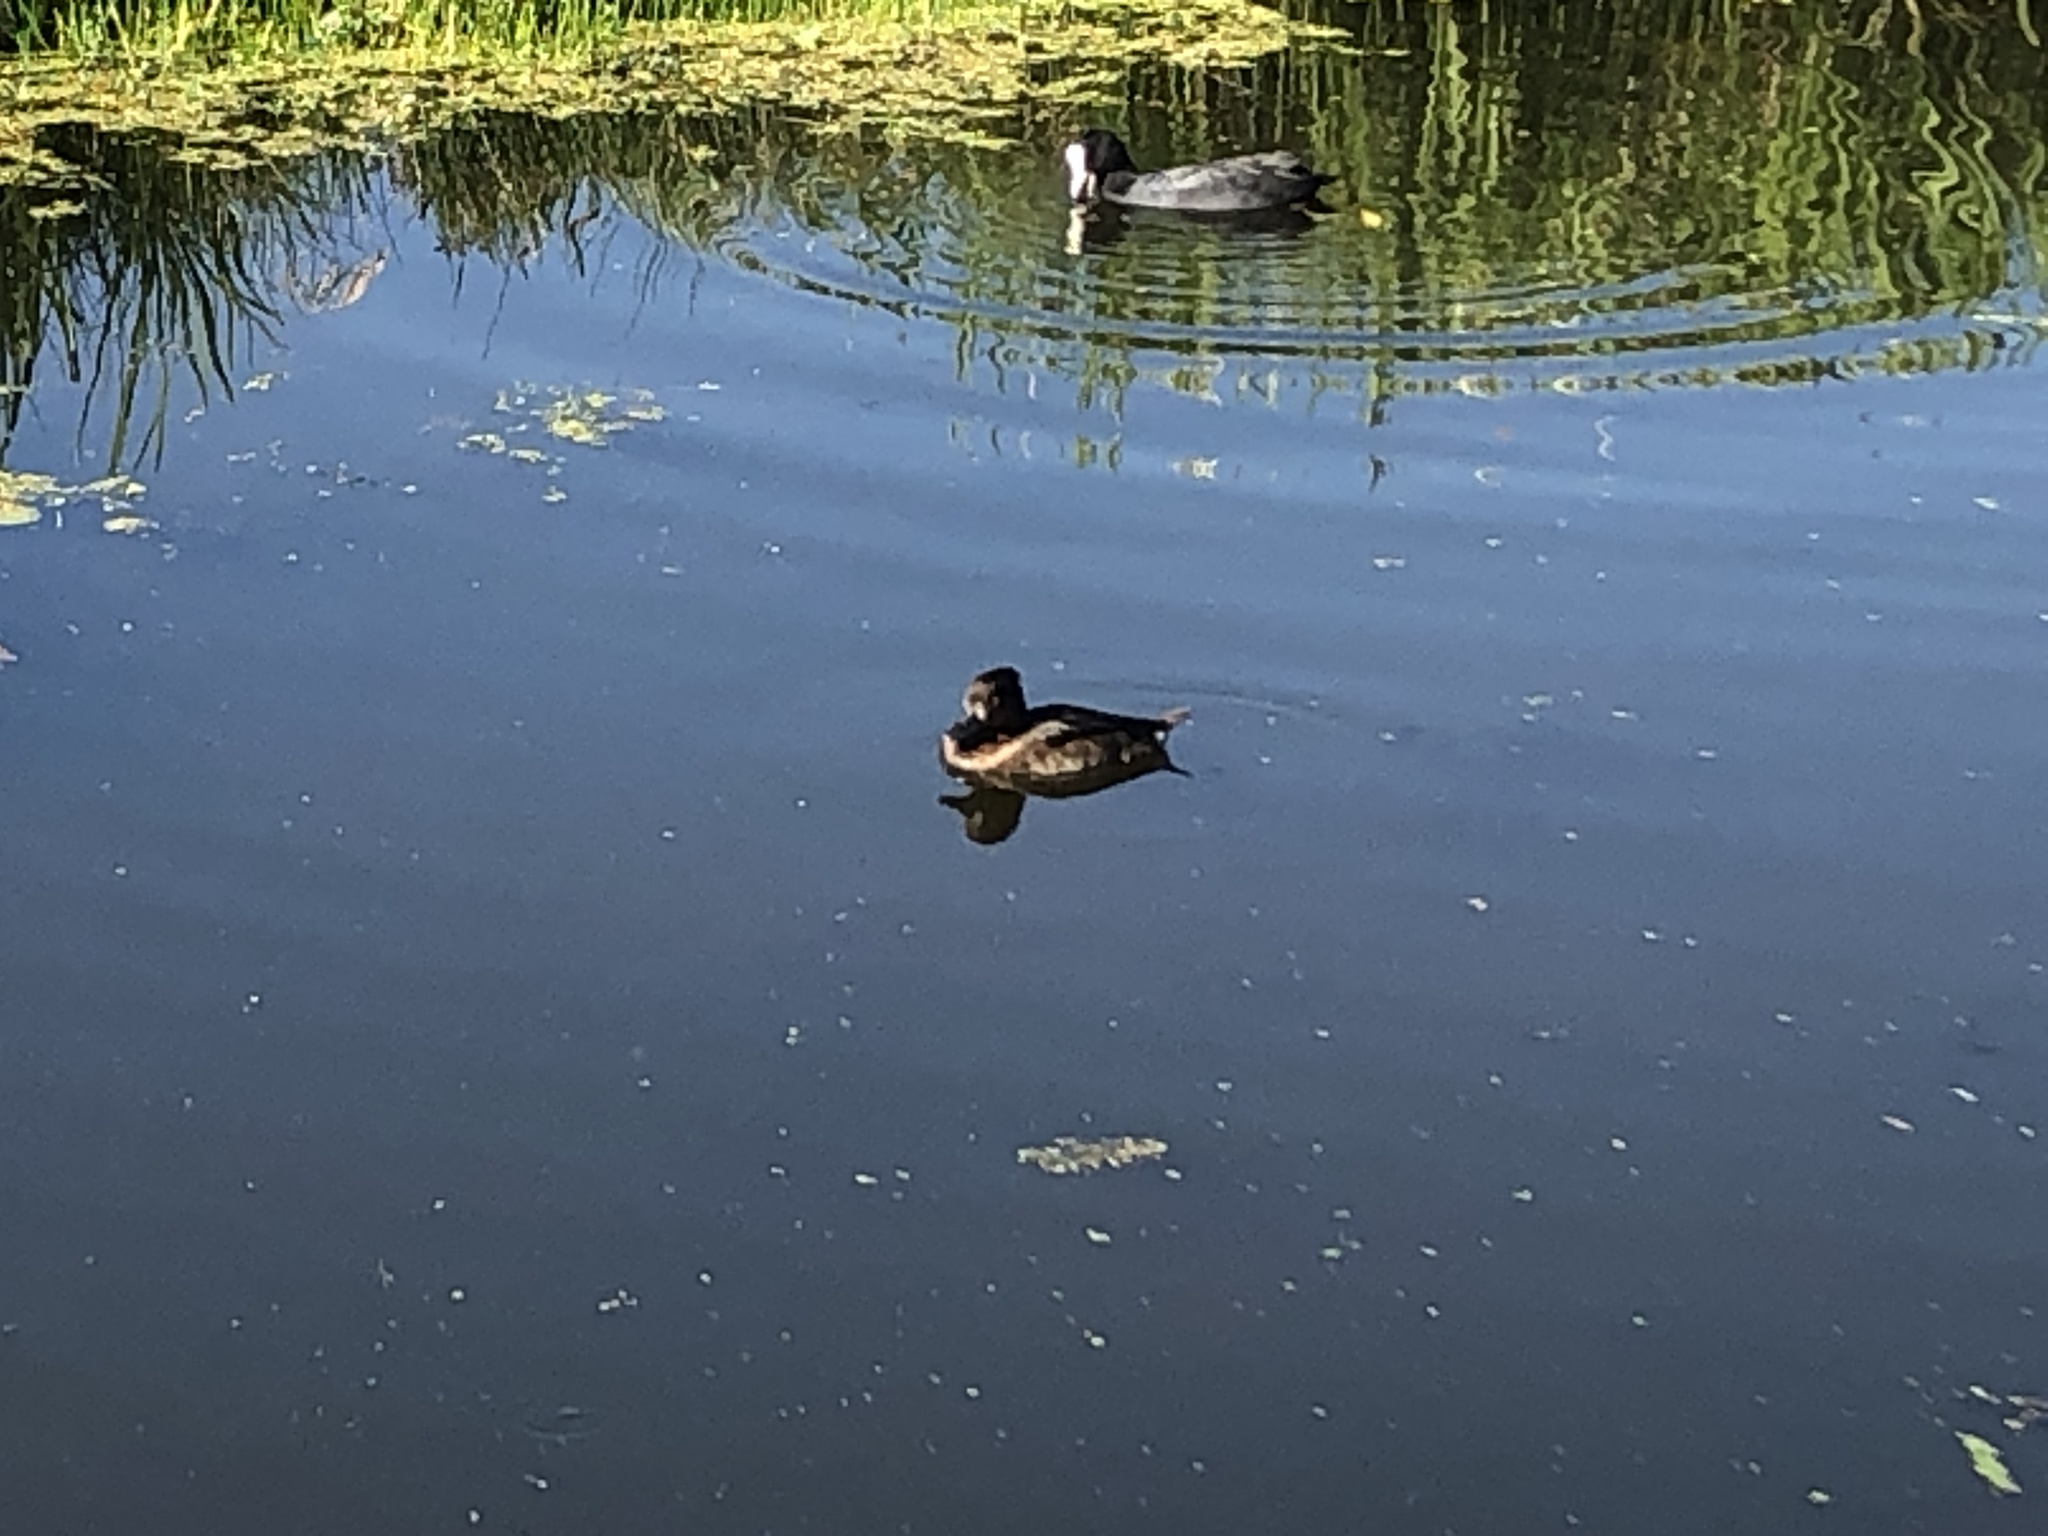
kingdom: Animalia
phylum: Chordata
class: Aves
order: Anseriformes
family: Anatidae
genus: Aythya
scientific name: Aythya fuligula
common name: Tufted duck
